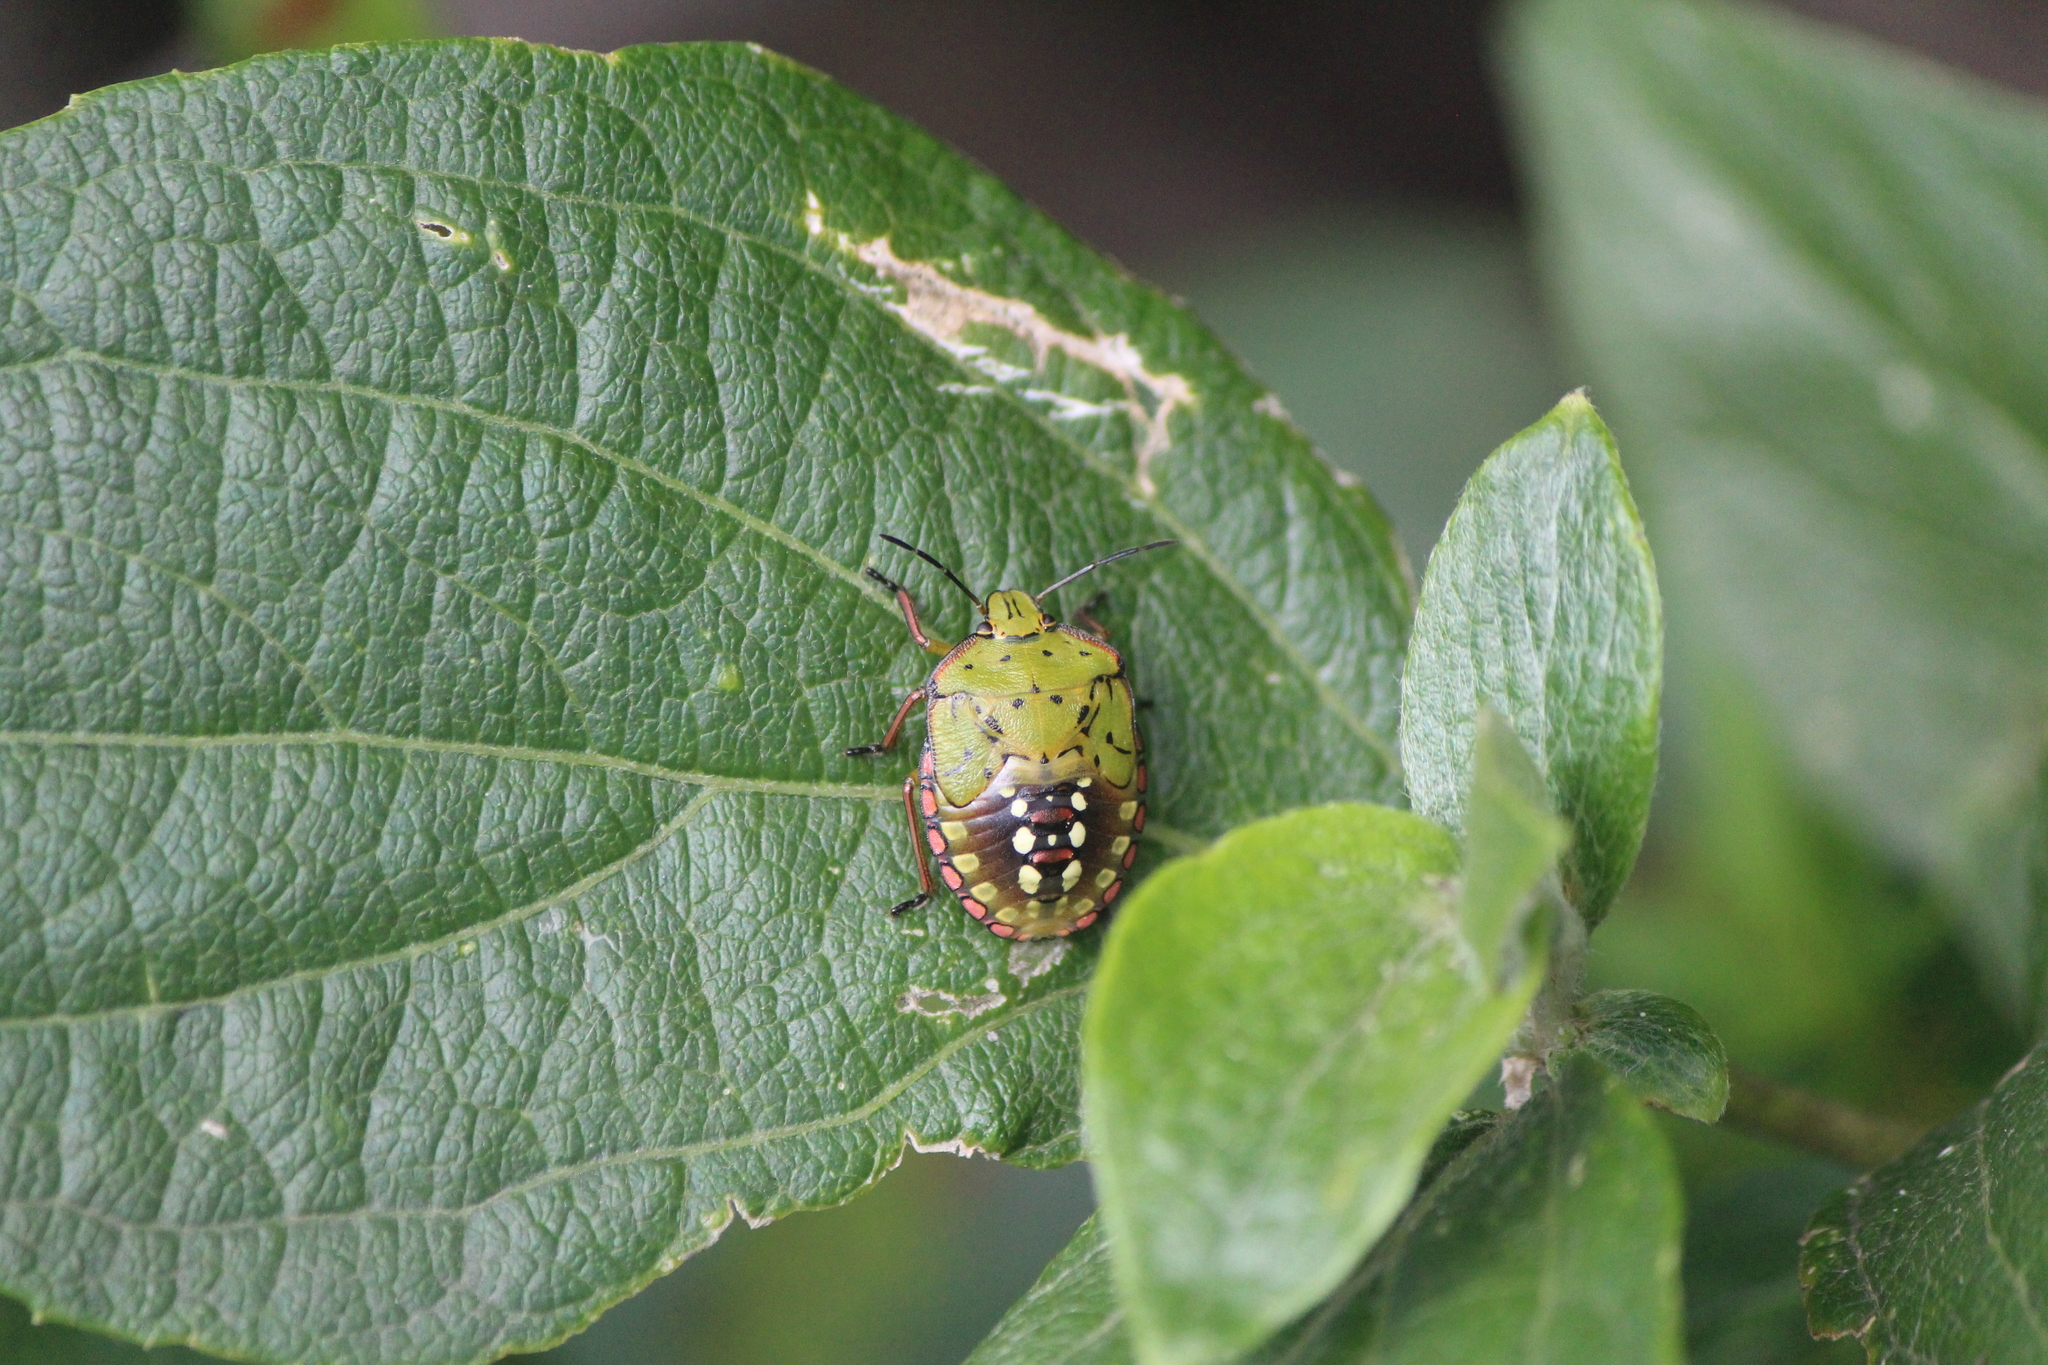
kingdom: Animalia
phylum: Arthropoda
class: Insecta
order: Hemiptera
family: Pentatomidae
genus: Nezara
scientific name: Nezara viridula
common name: Southern green stink bug
